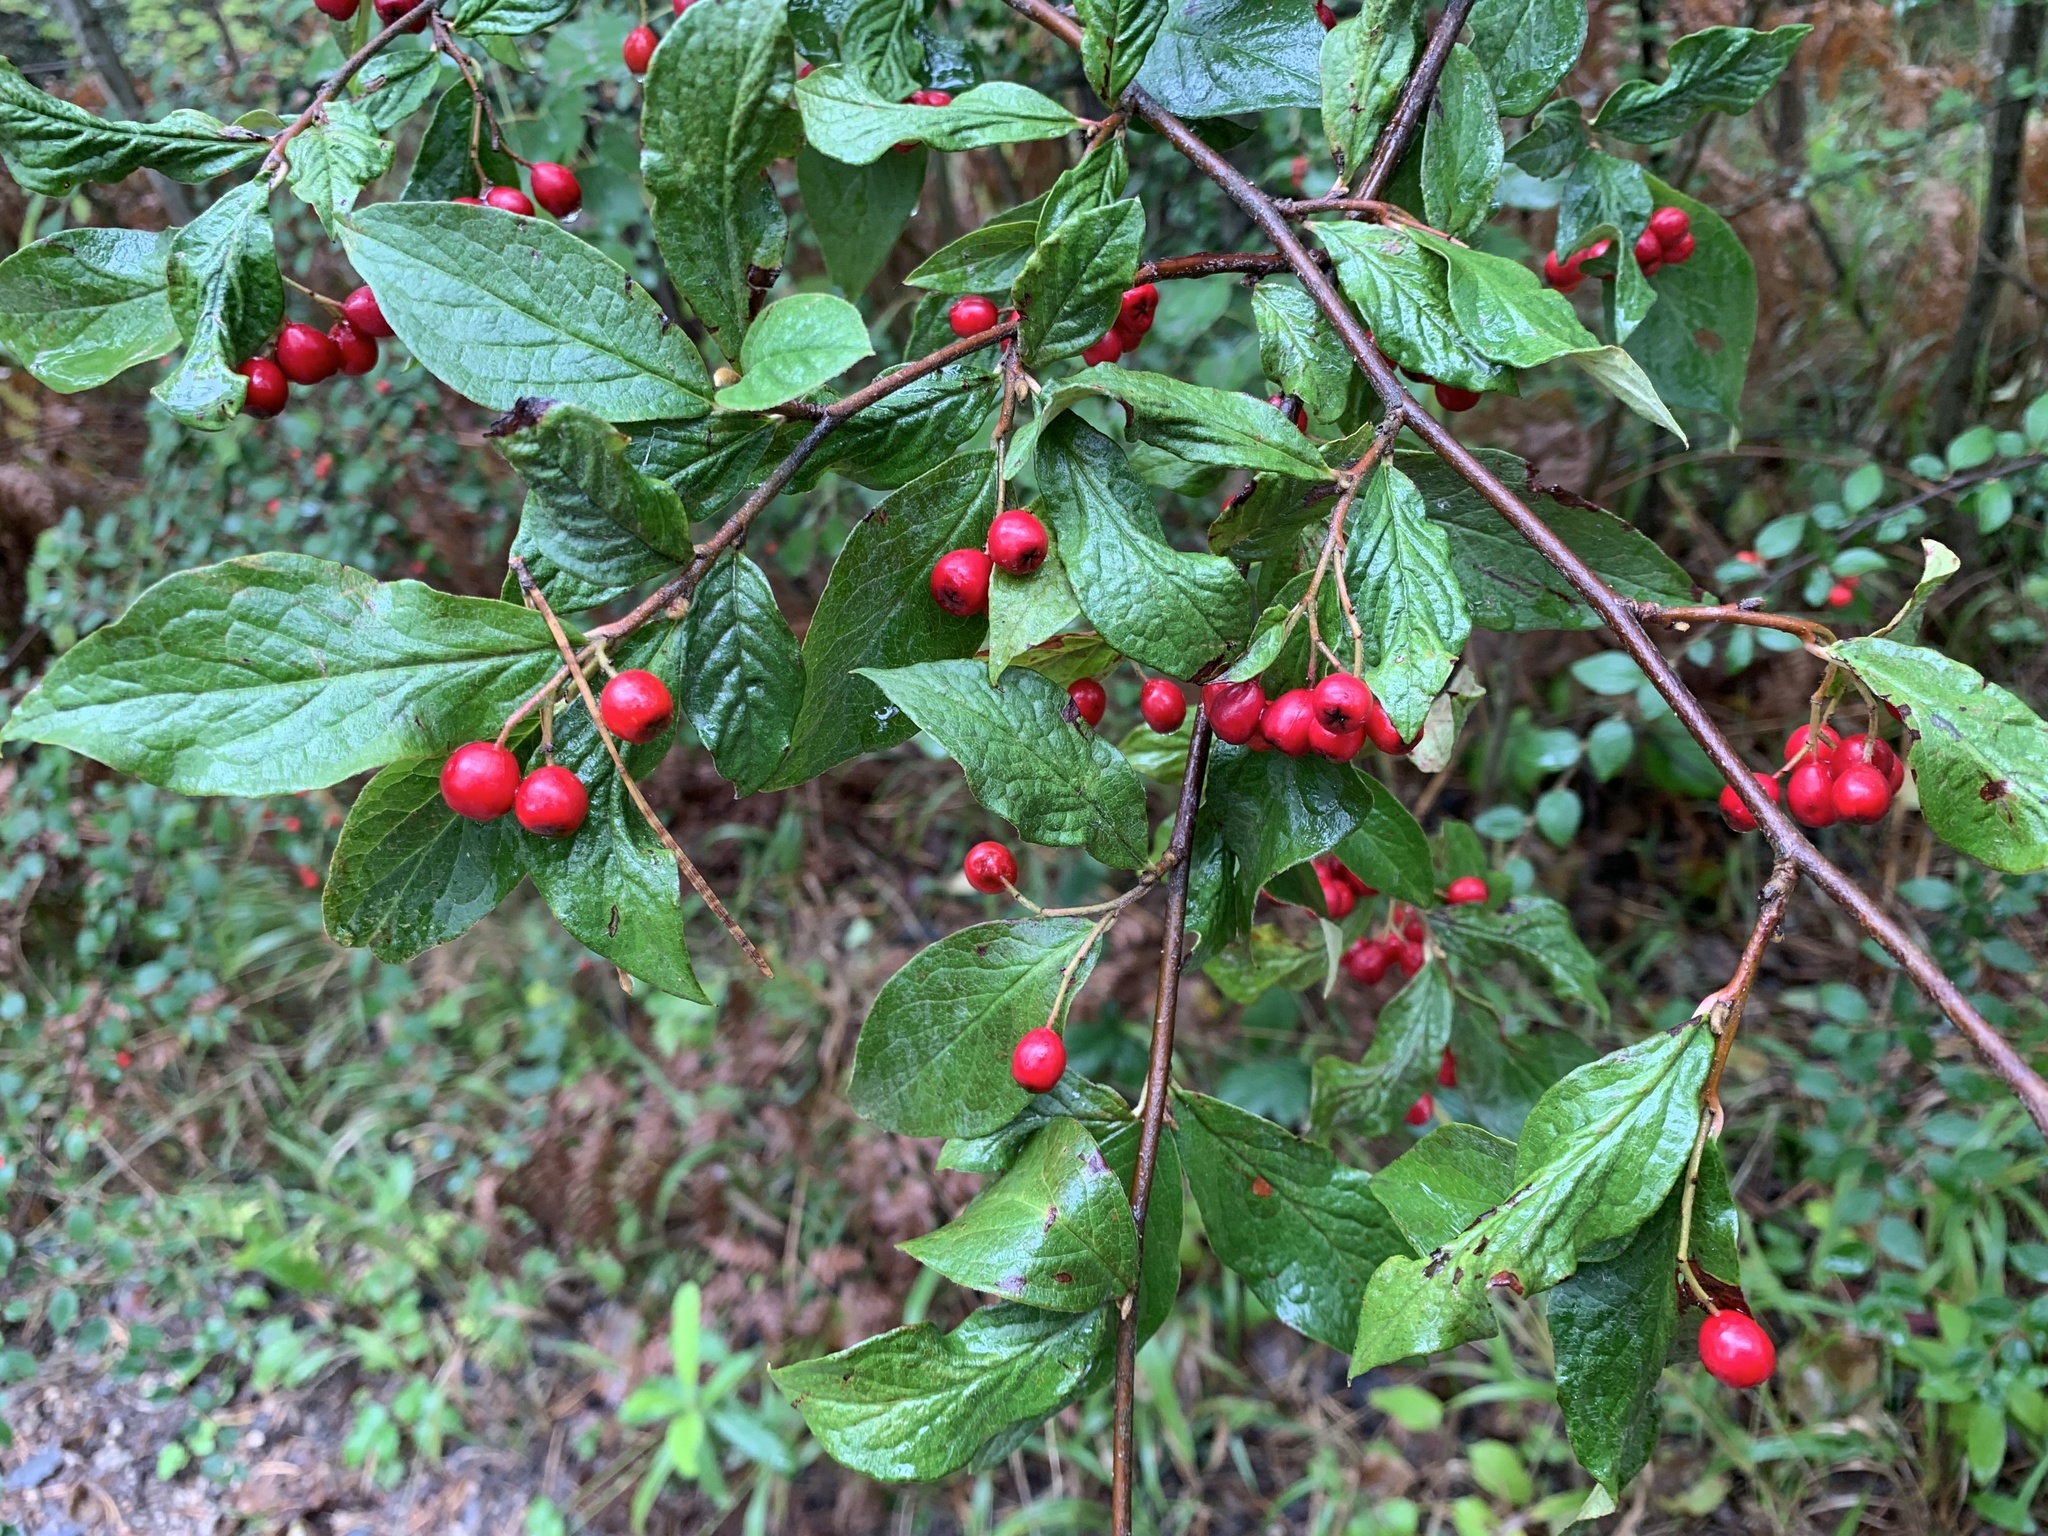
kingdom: Plantae
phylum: Tracheophyta
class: Magnoliopsida
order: Rosales
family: Rosaceae
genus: Cotoneaster
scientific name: Cotoneaster bullatus
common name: Hollyberry cotoneaster
